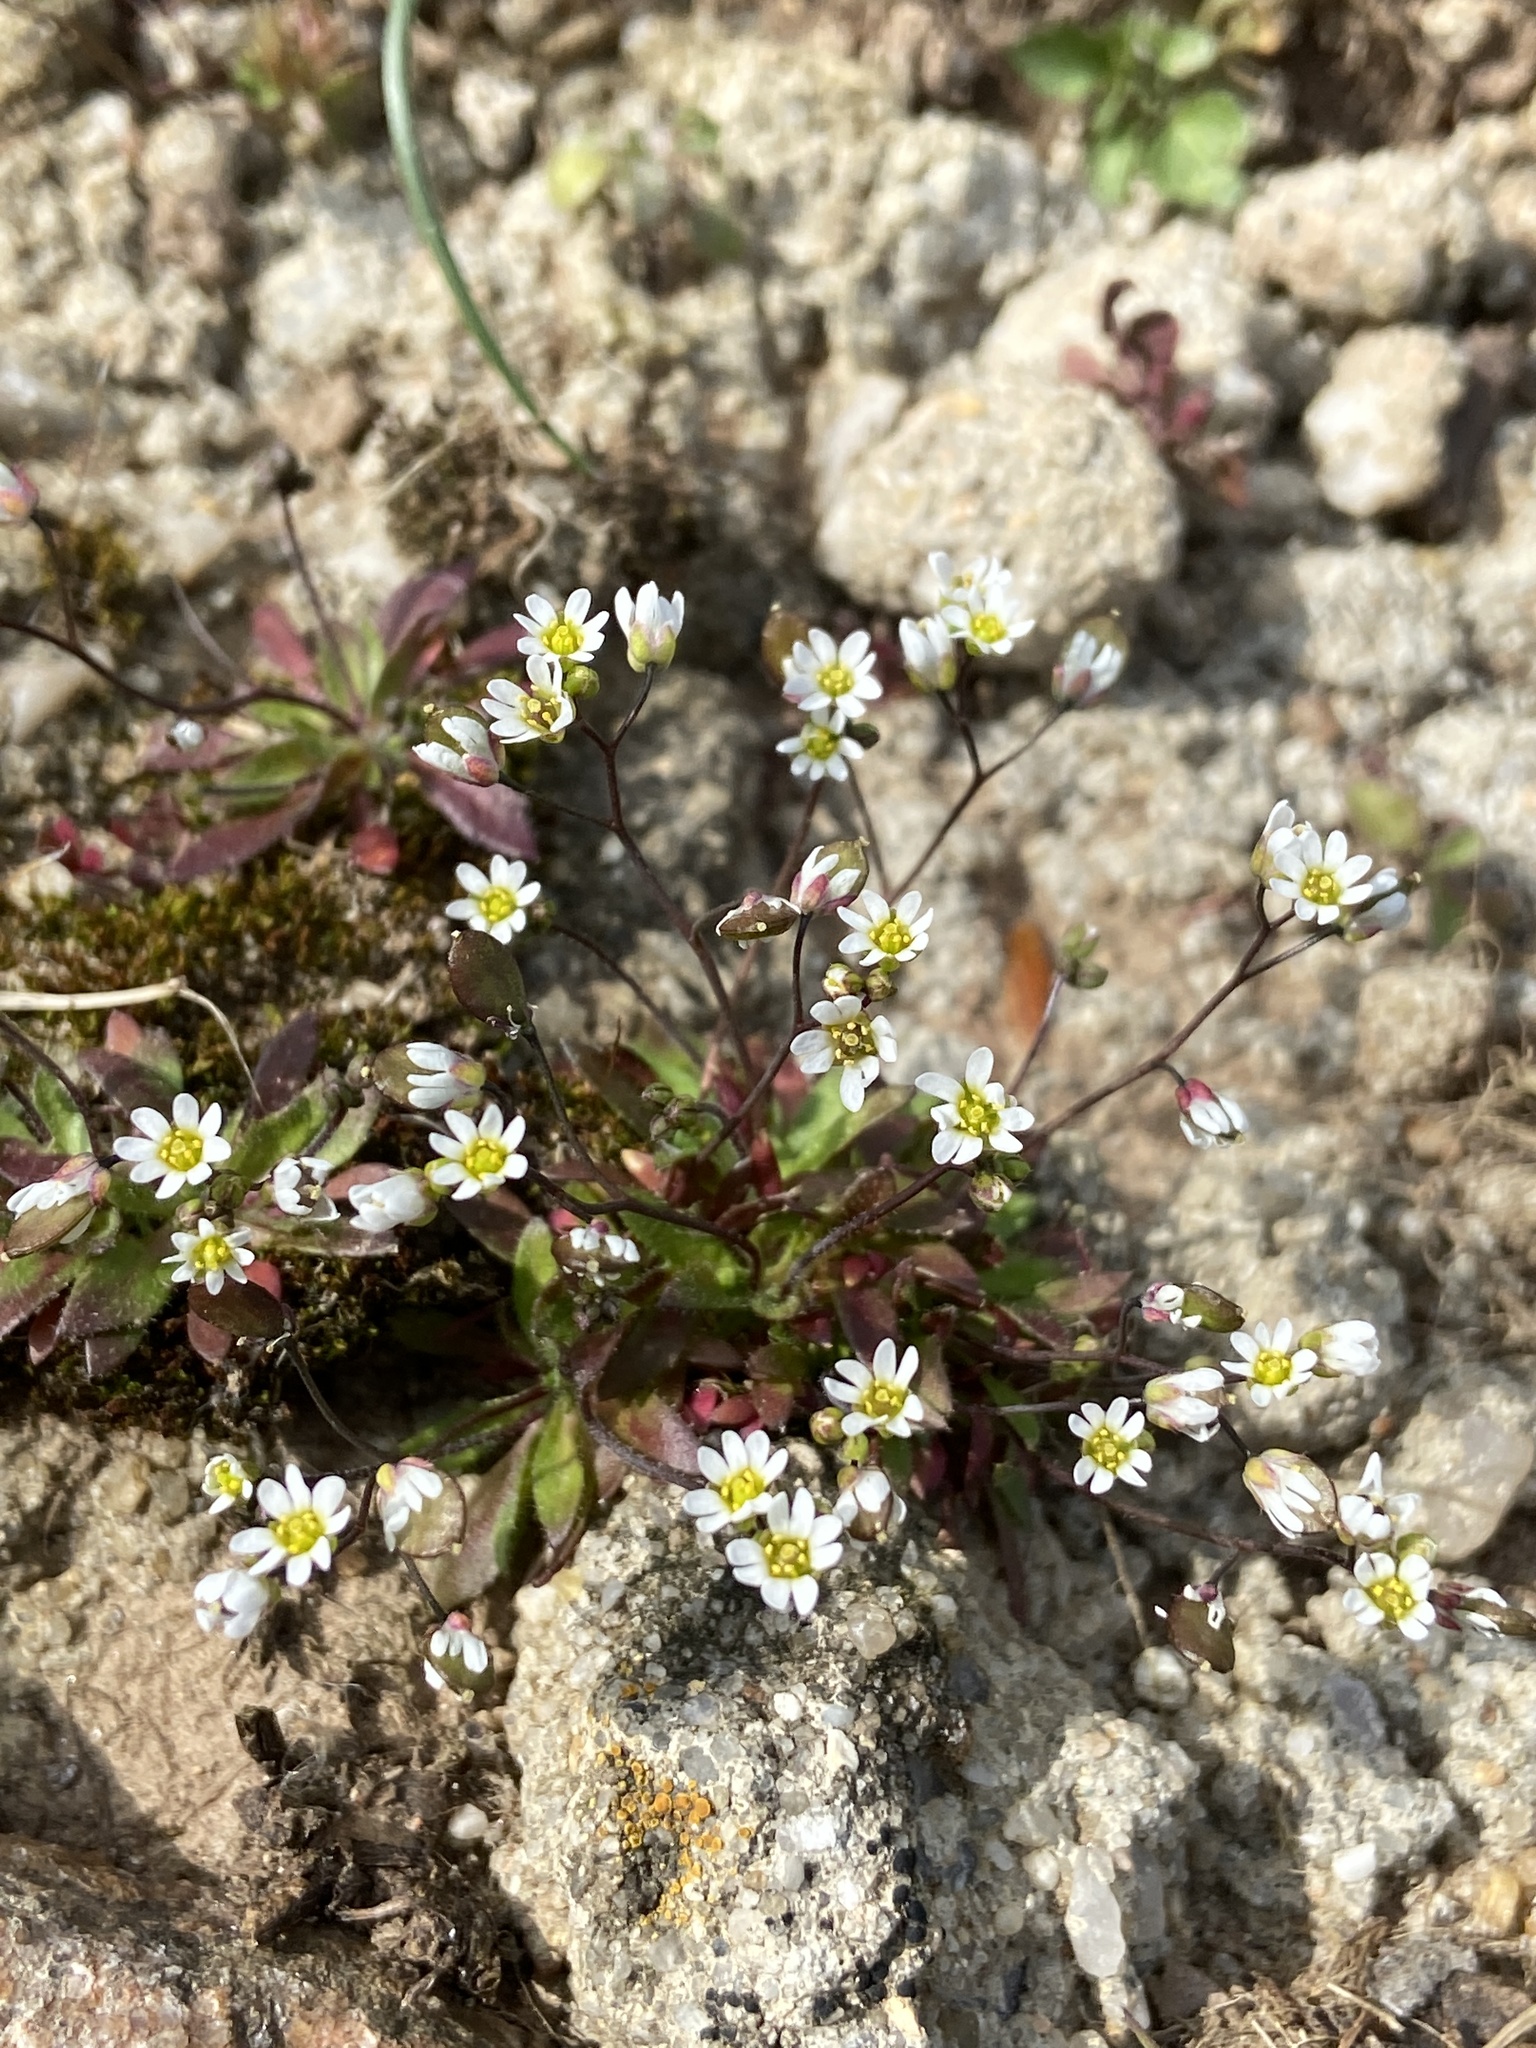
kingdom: Plantae
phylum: Tracheophyta
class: Magnoliopsida
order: Brassicales
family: Brassicaceae
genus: Draba
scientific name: Draba verna
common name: Spring draba
